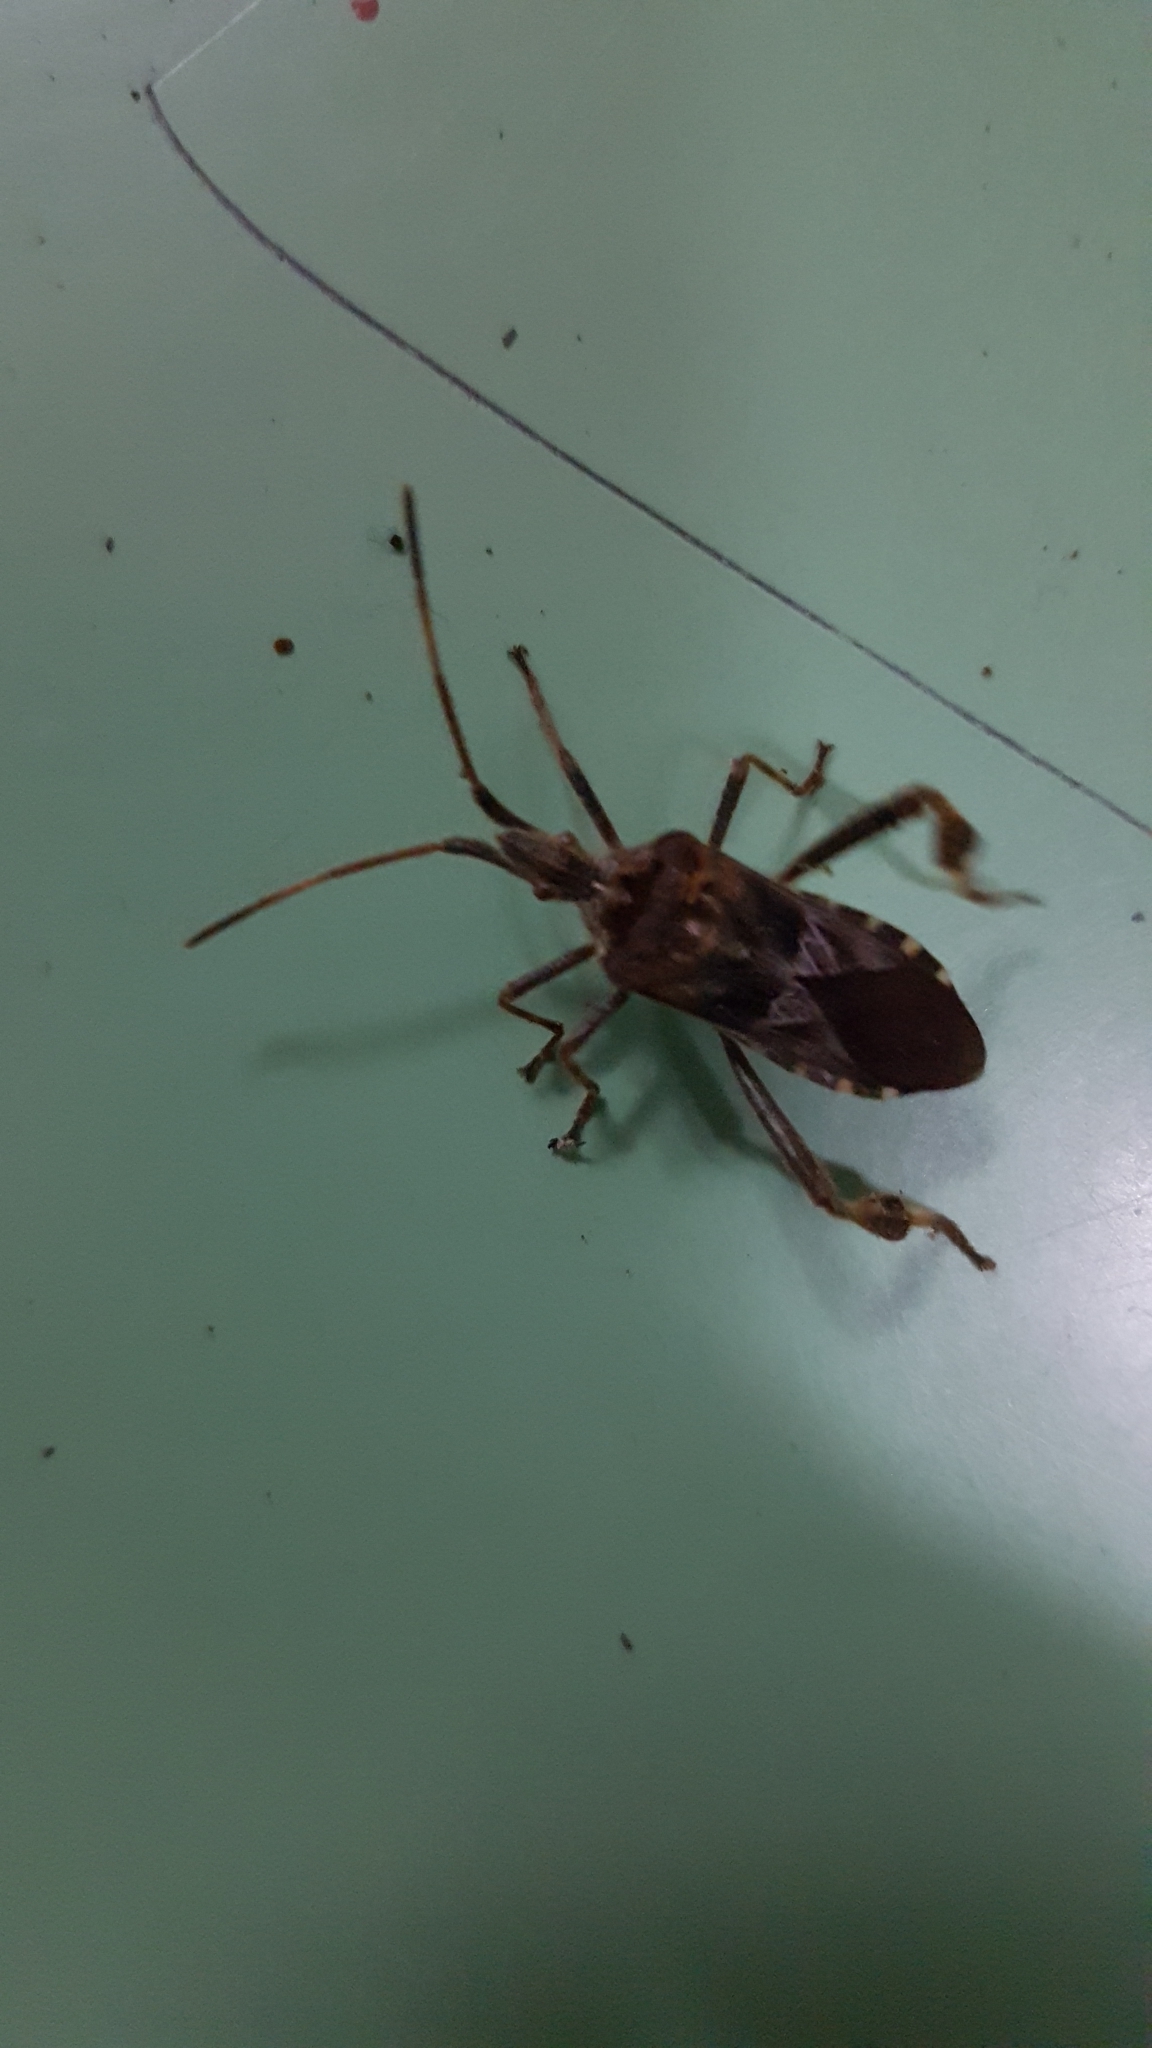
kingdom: Animalia
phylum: Arthropoda
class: Insecta
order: Hemiptera
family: Coreidae
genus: Leptoglossus
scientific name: Leptoglossus occidentalis
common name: Western conifer-seed bug
